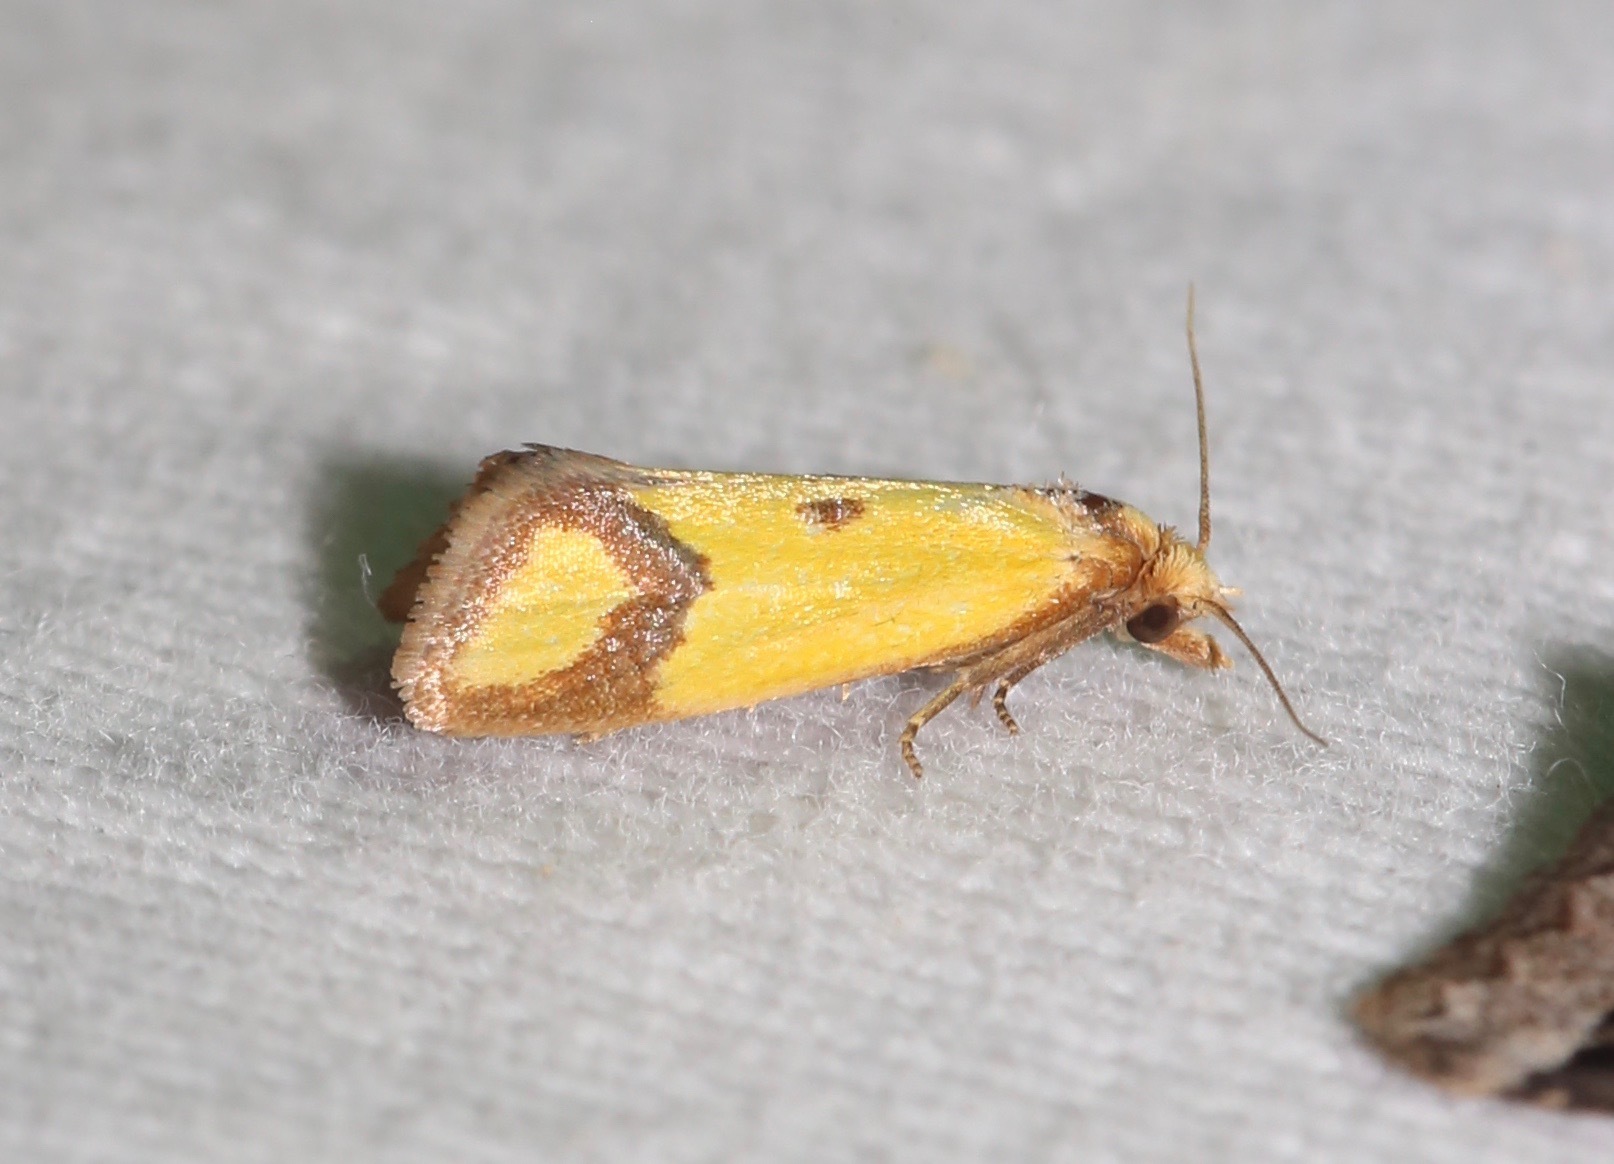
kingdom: Animalia
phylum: Arthropoda
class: Insecta
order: Lepidoptera
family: Tortricidae
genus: Agapeta
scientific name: Agapeta zoegana
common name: Sulfur knapweed root moth
